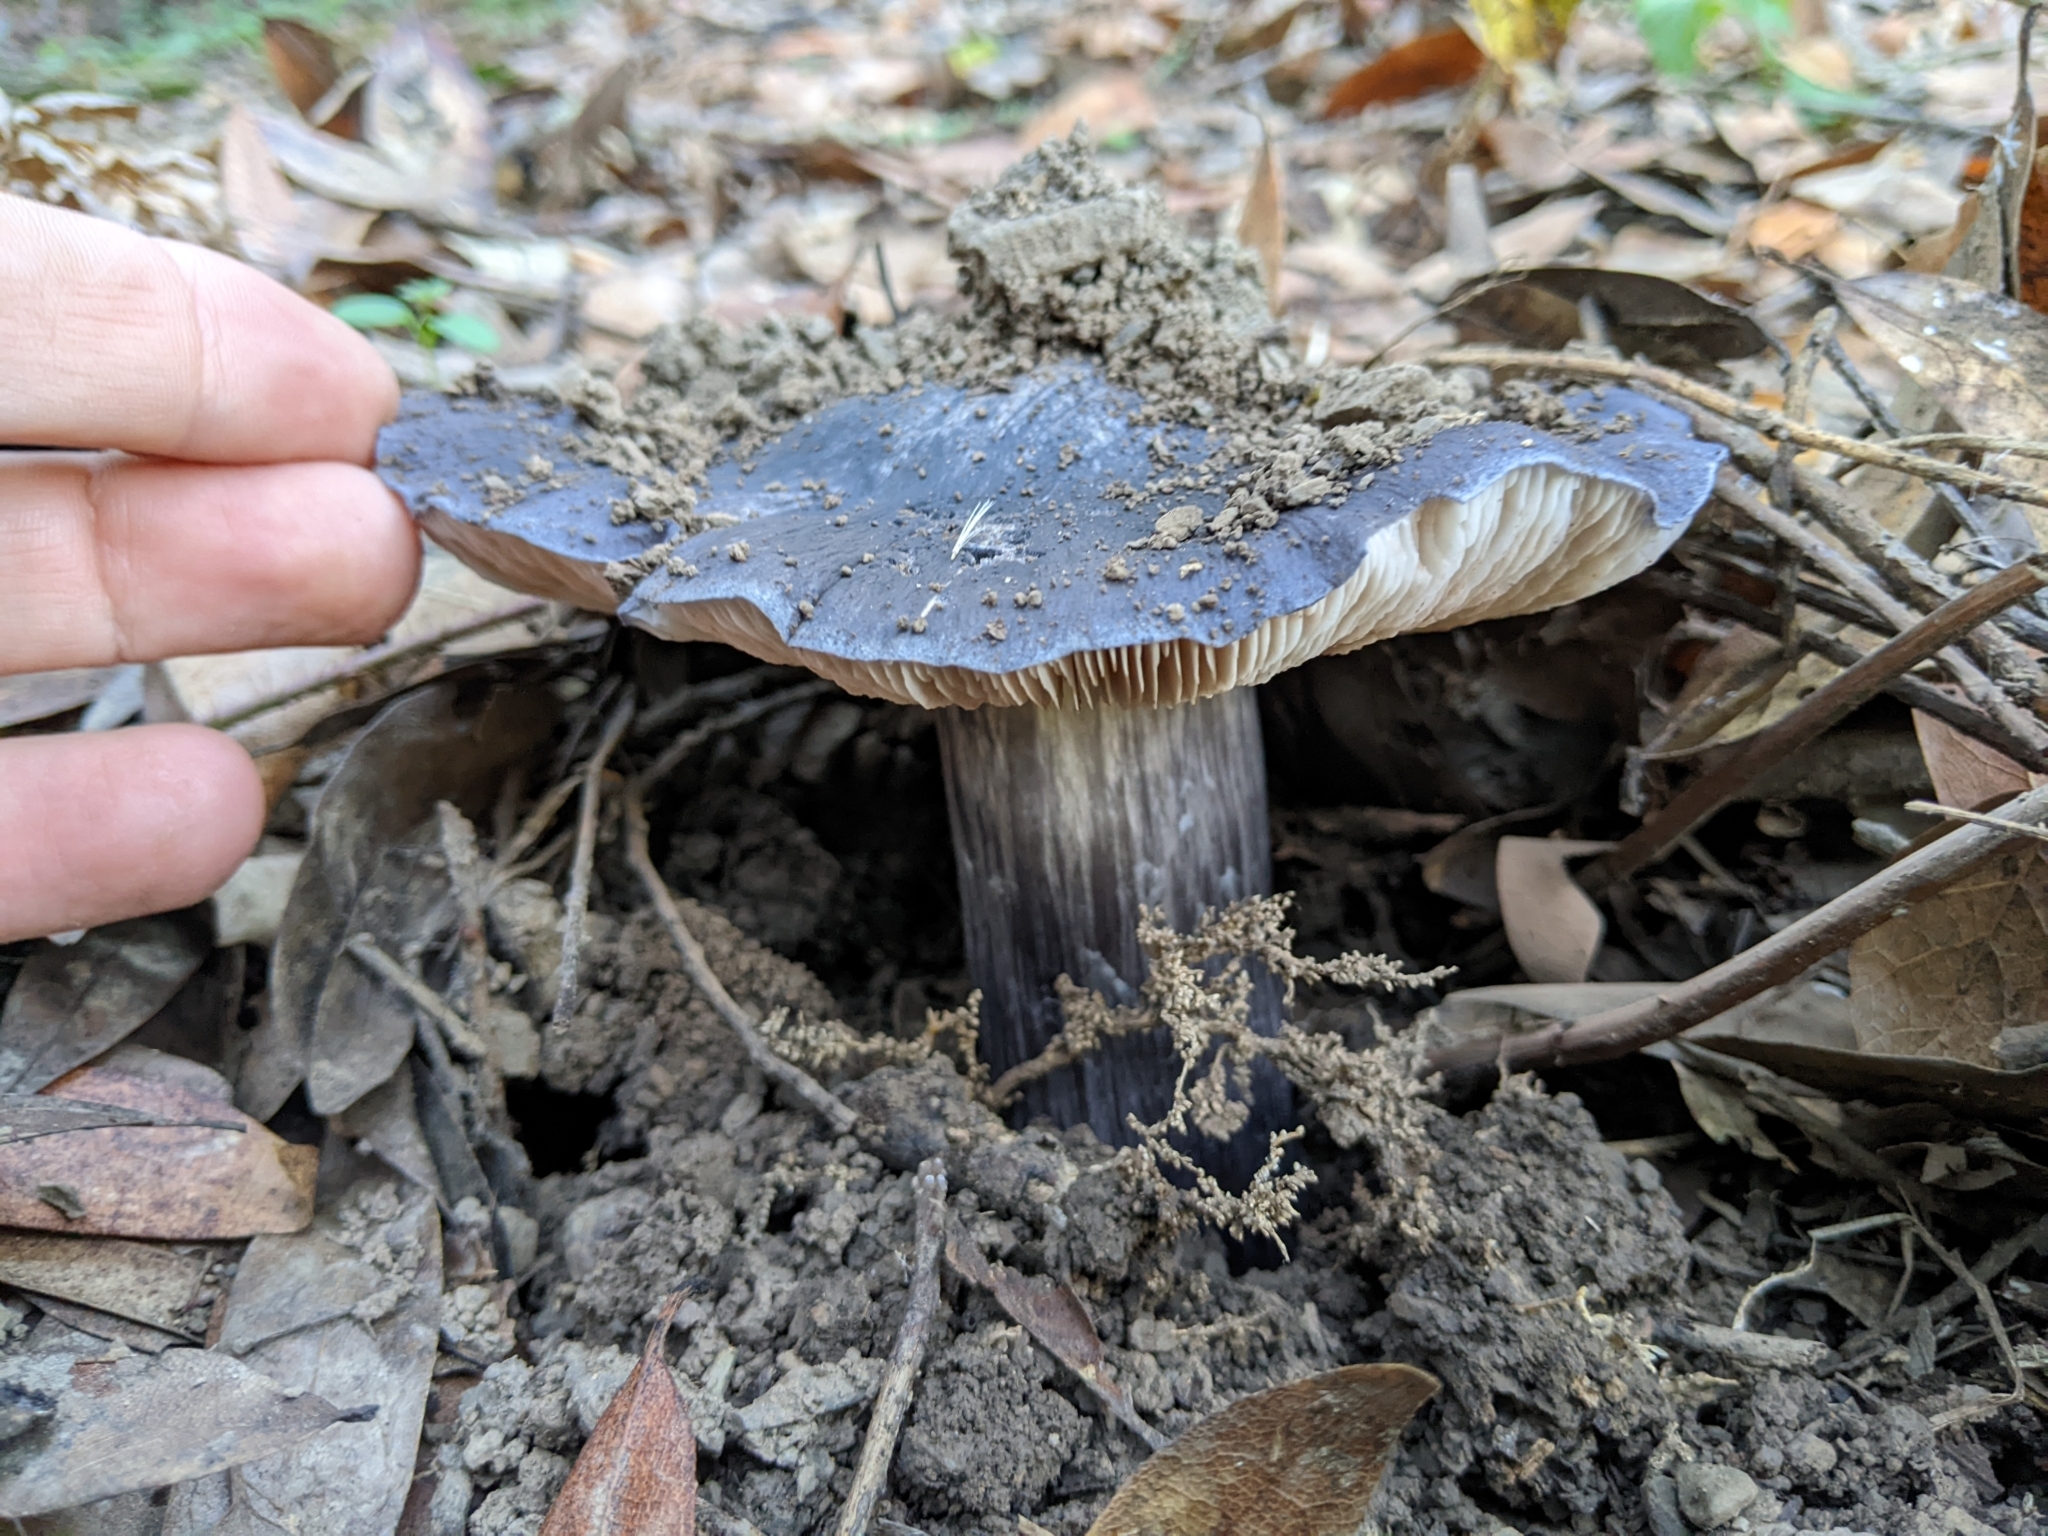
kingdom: Fungi
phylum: Basidiomycota
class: Agaricomycetes
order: Agaricales
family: Entolomataceae
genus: Entoloma
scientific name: Entoloma medianox
